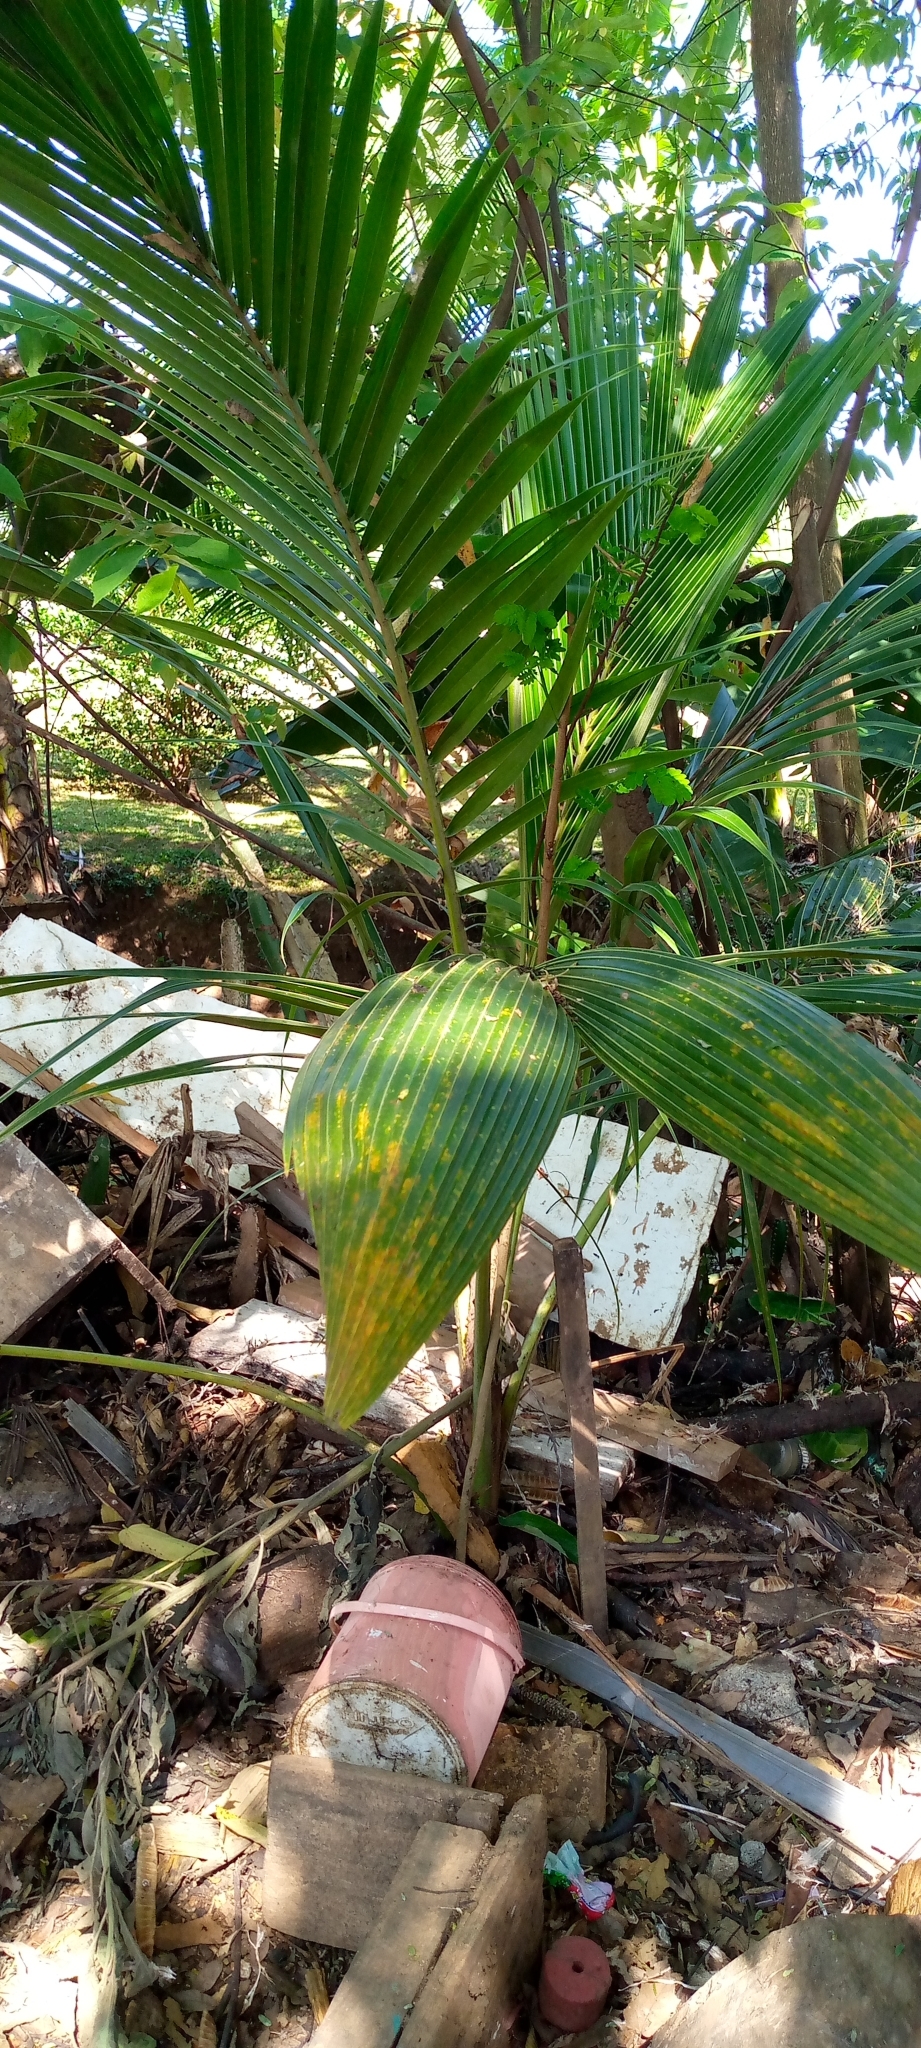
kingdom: Plantae
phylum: Tracheophyta
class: Liliopsida
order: Arecales
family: Arecaceae
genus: Cocos
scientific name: Cocos nucifera
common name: Coconut palm
